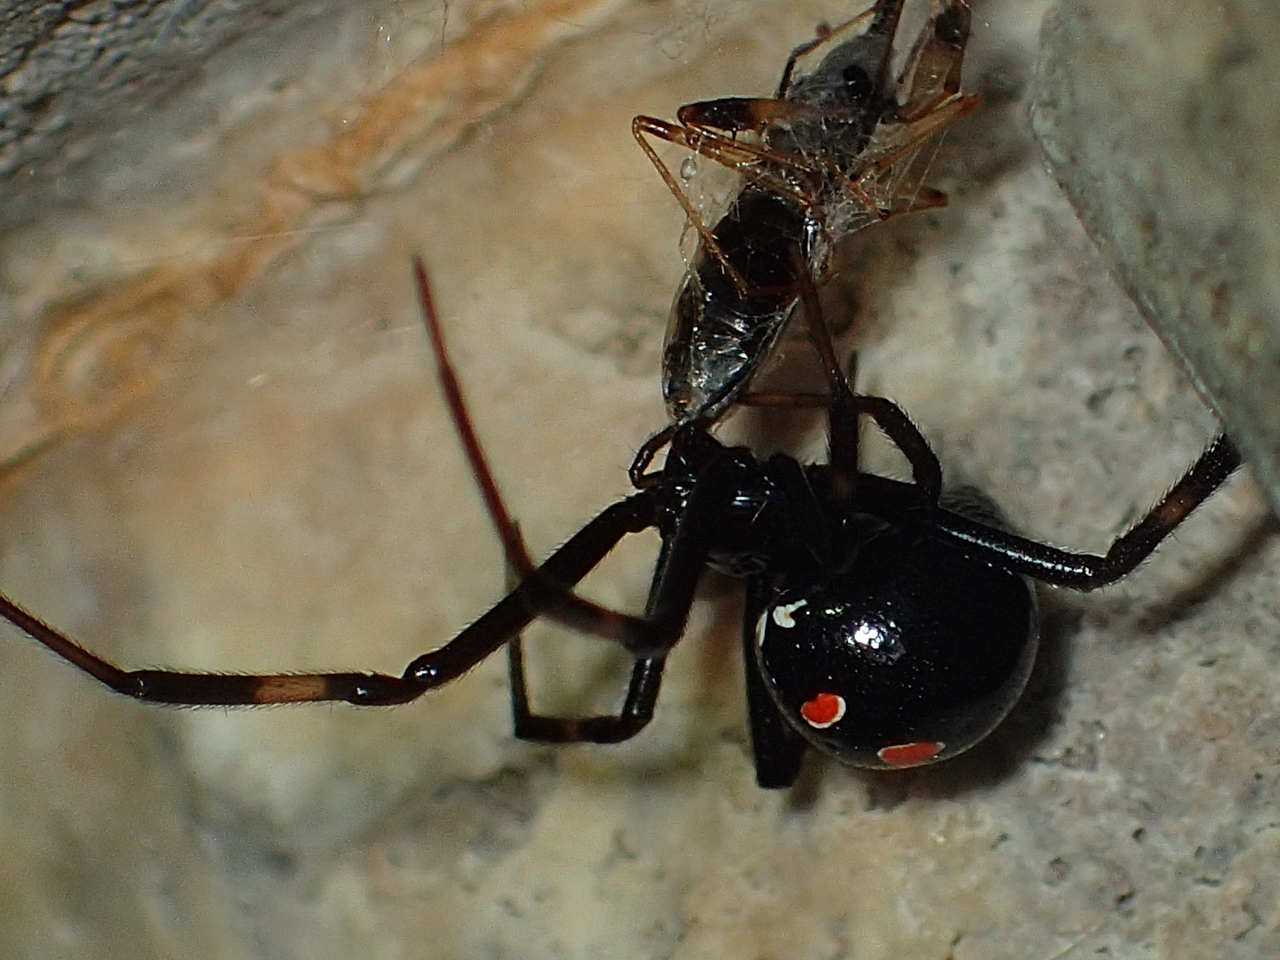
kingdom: Animalia
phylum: Arthropoda
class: Arachnida
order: Araneae
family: Theridiidae
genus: Latrodectus
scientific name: Latrodectus variolus
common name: Northern black widow
